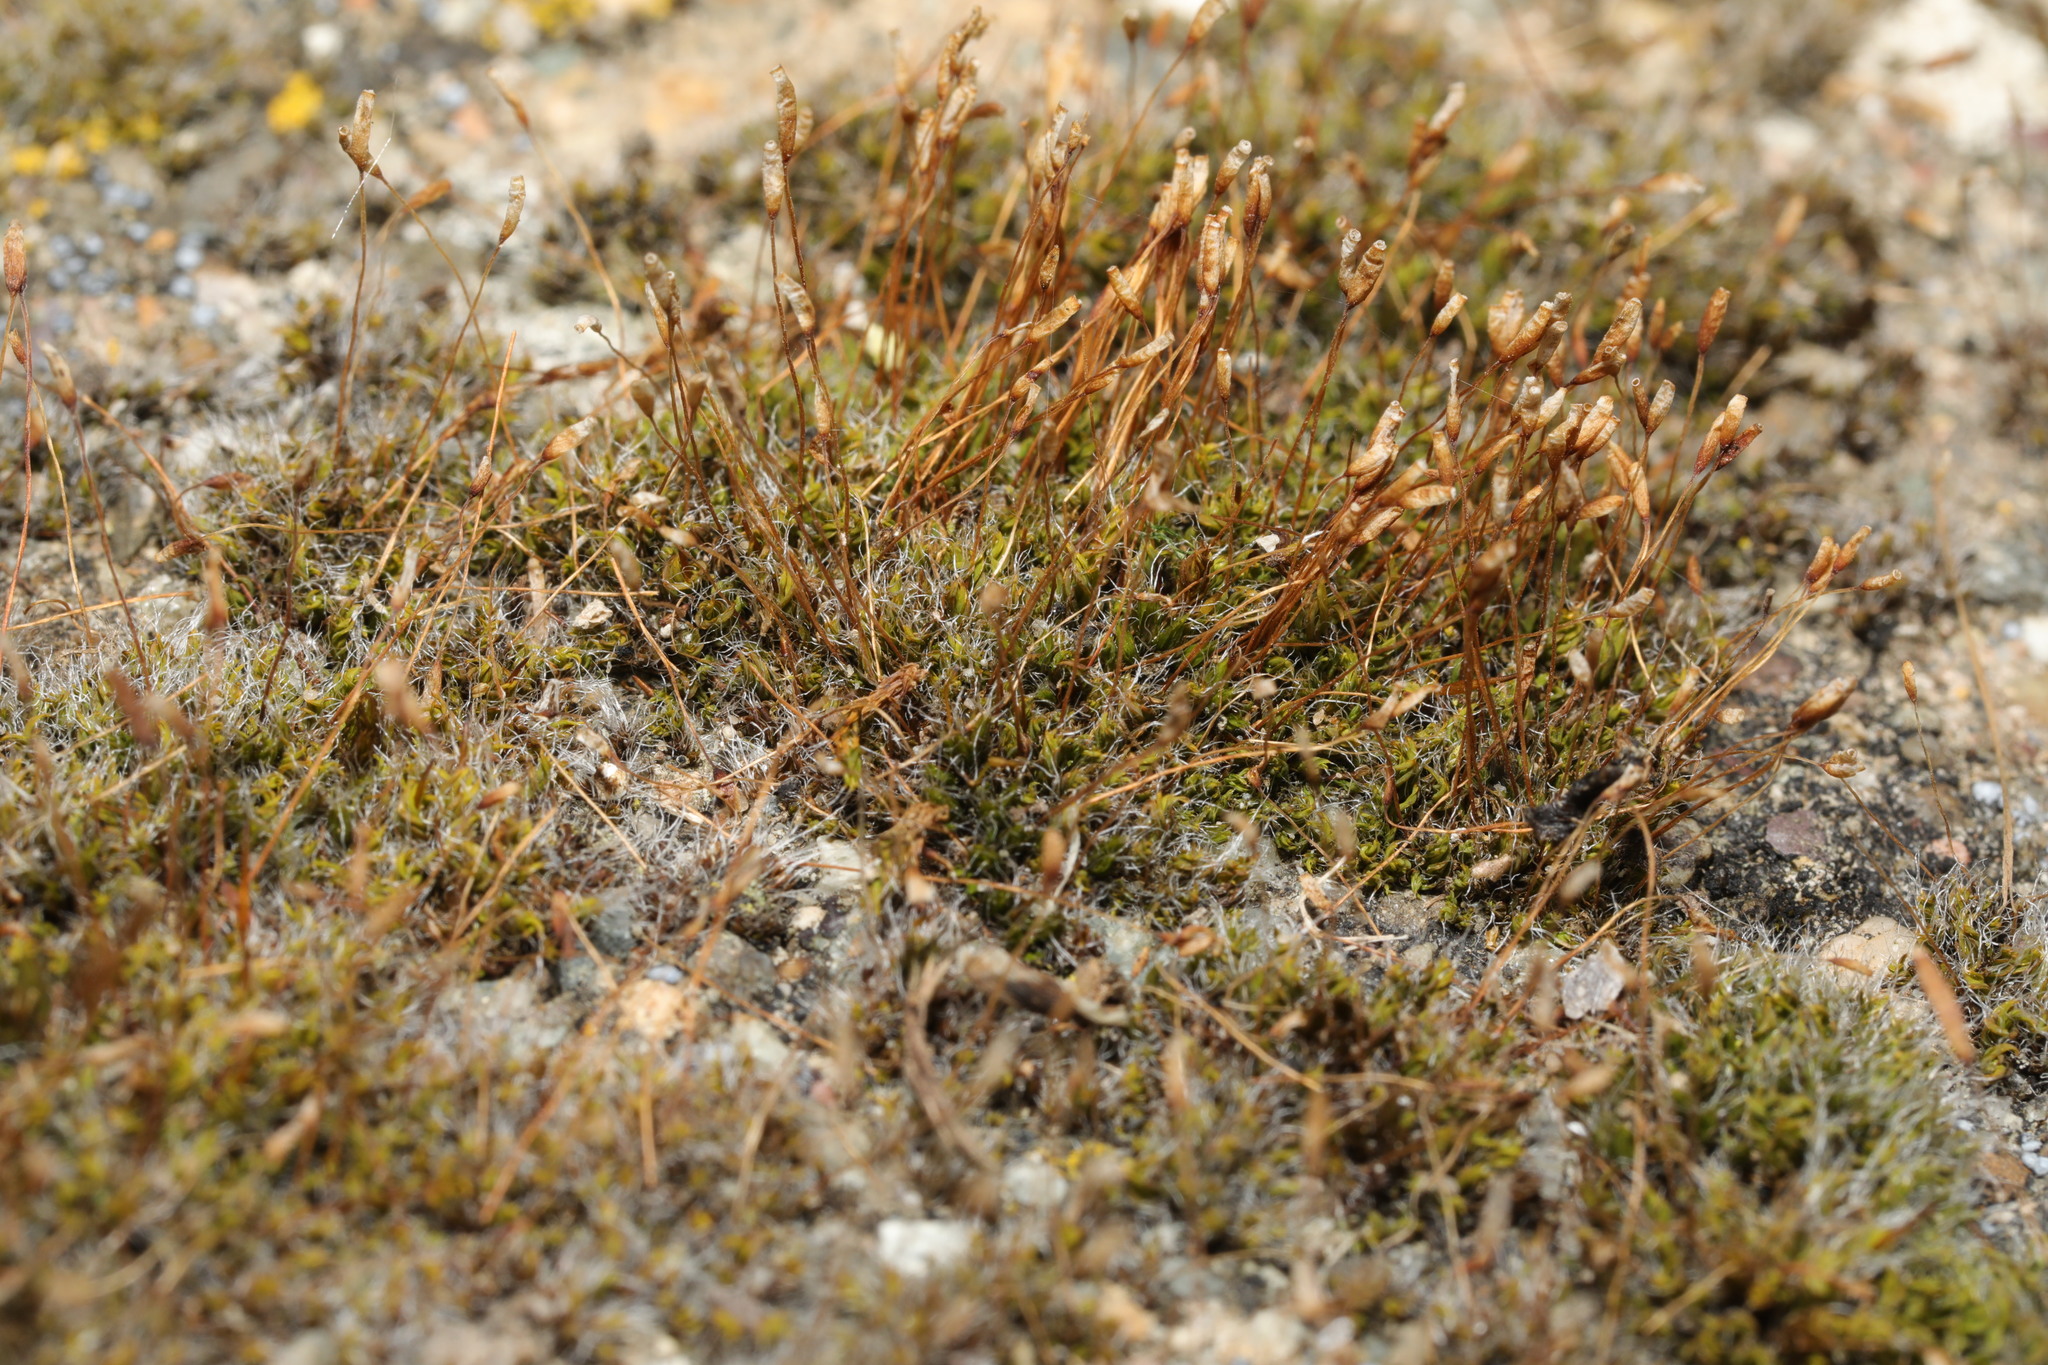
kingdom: Plantae
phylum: Bryophyta
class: Bryopsida
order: Pottiales
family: Pottiaceae
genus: Tortula
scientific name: Tortula muralis
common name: Wall screw-moss
